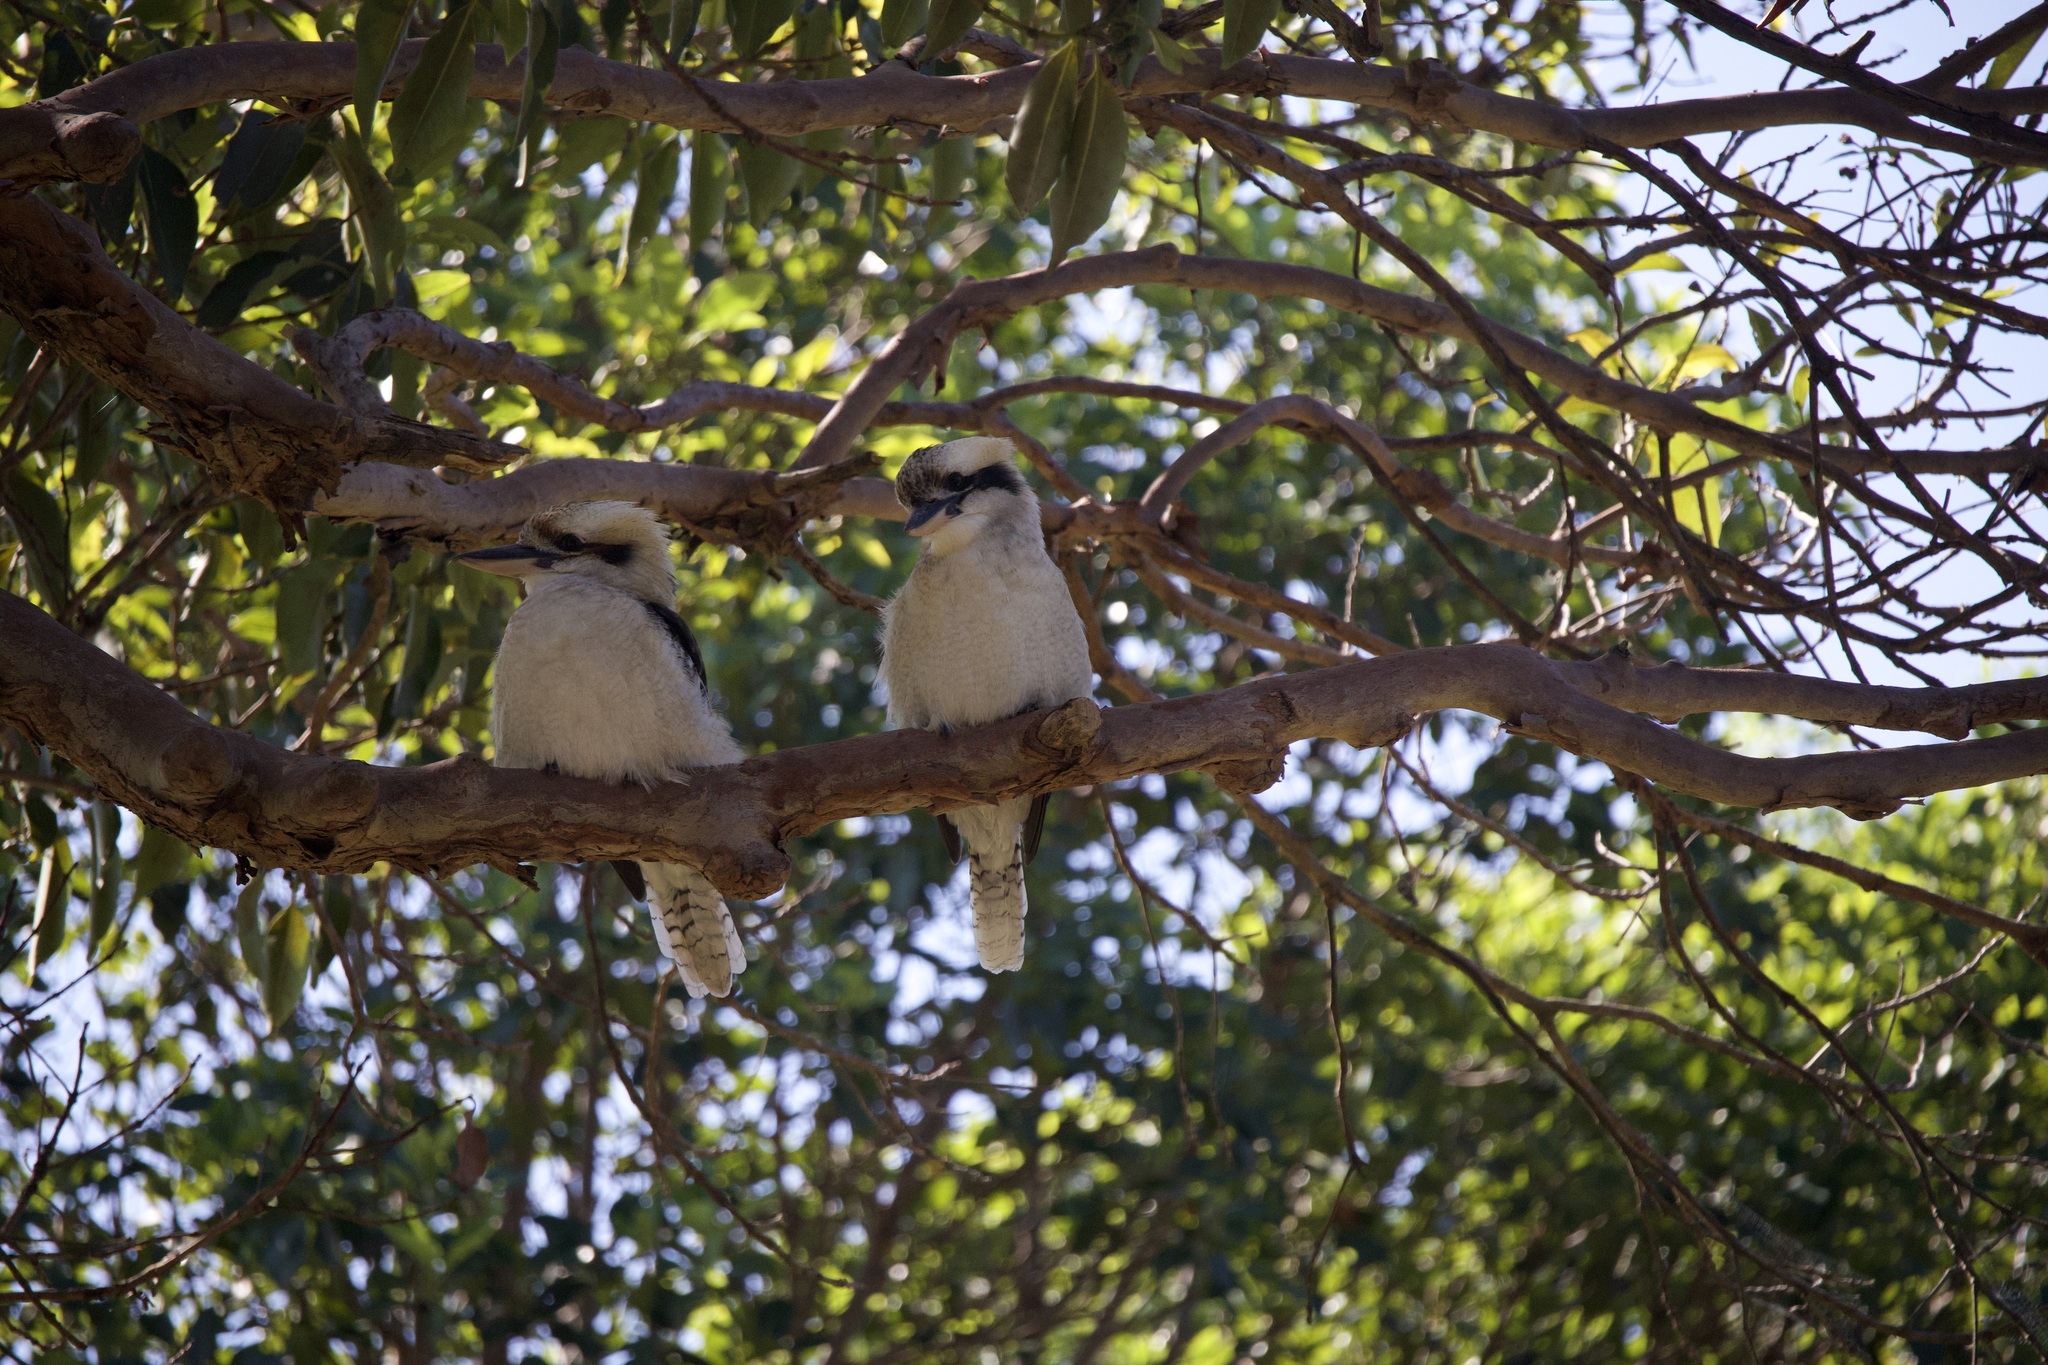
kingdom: Animalia
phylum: Chordata
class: Aves
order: Coraciiformes
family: Alcedinidae
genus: Dacelo
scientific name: Dacelo novaeguineae
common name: Laughing kookaburra
